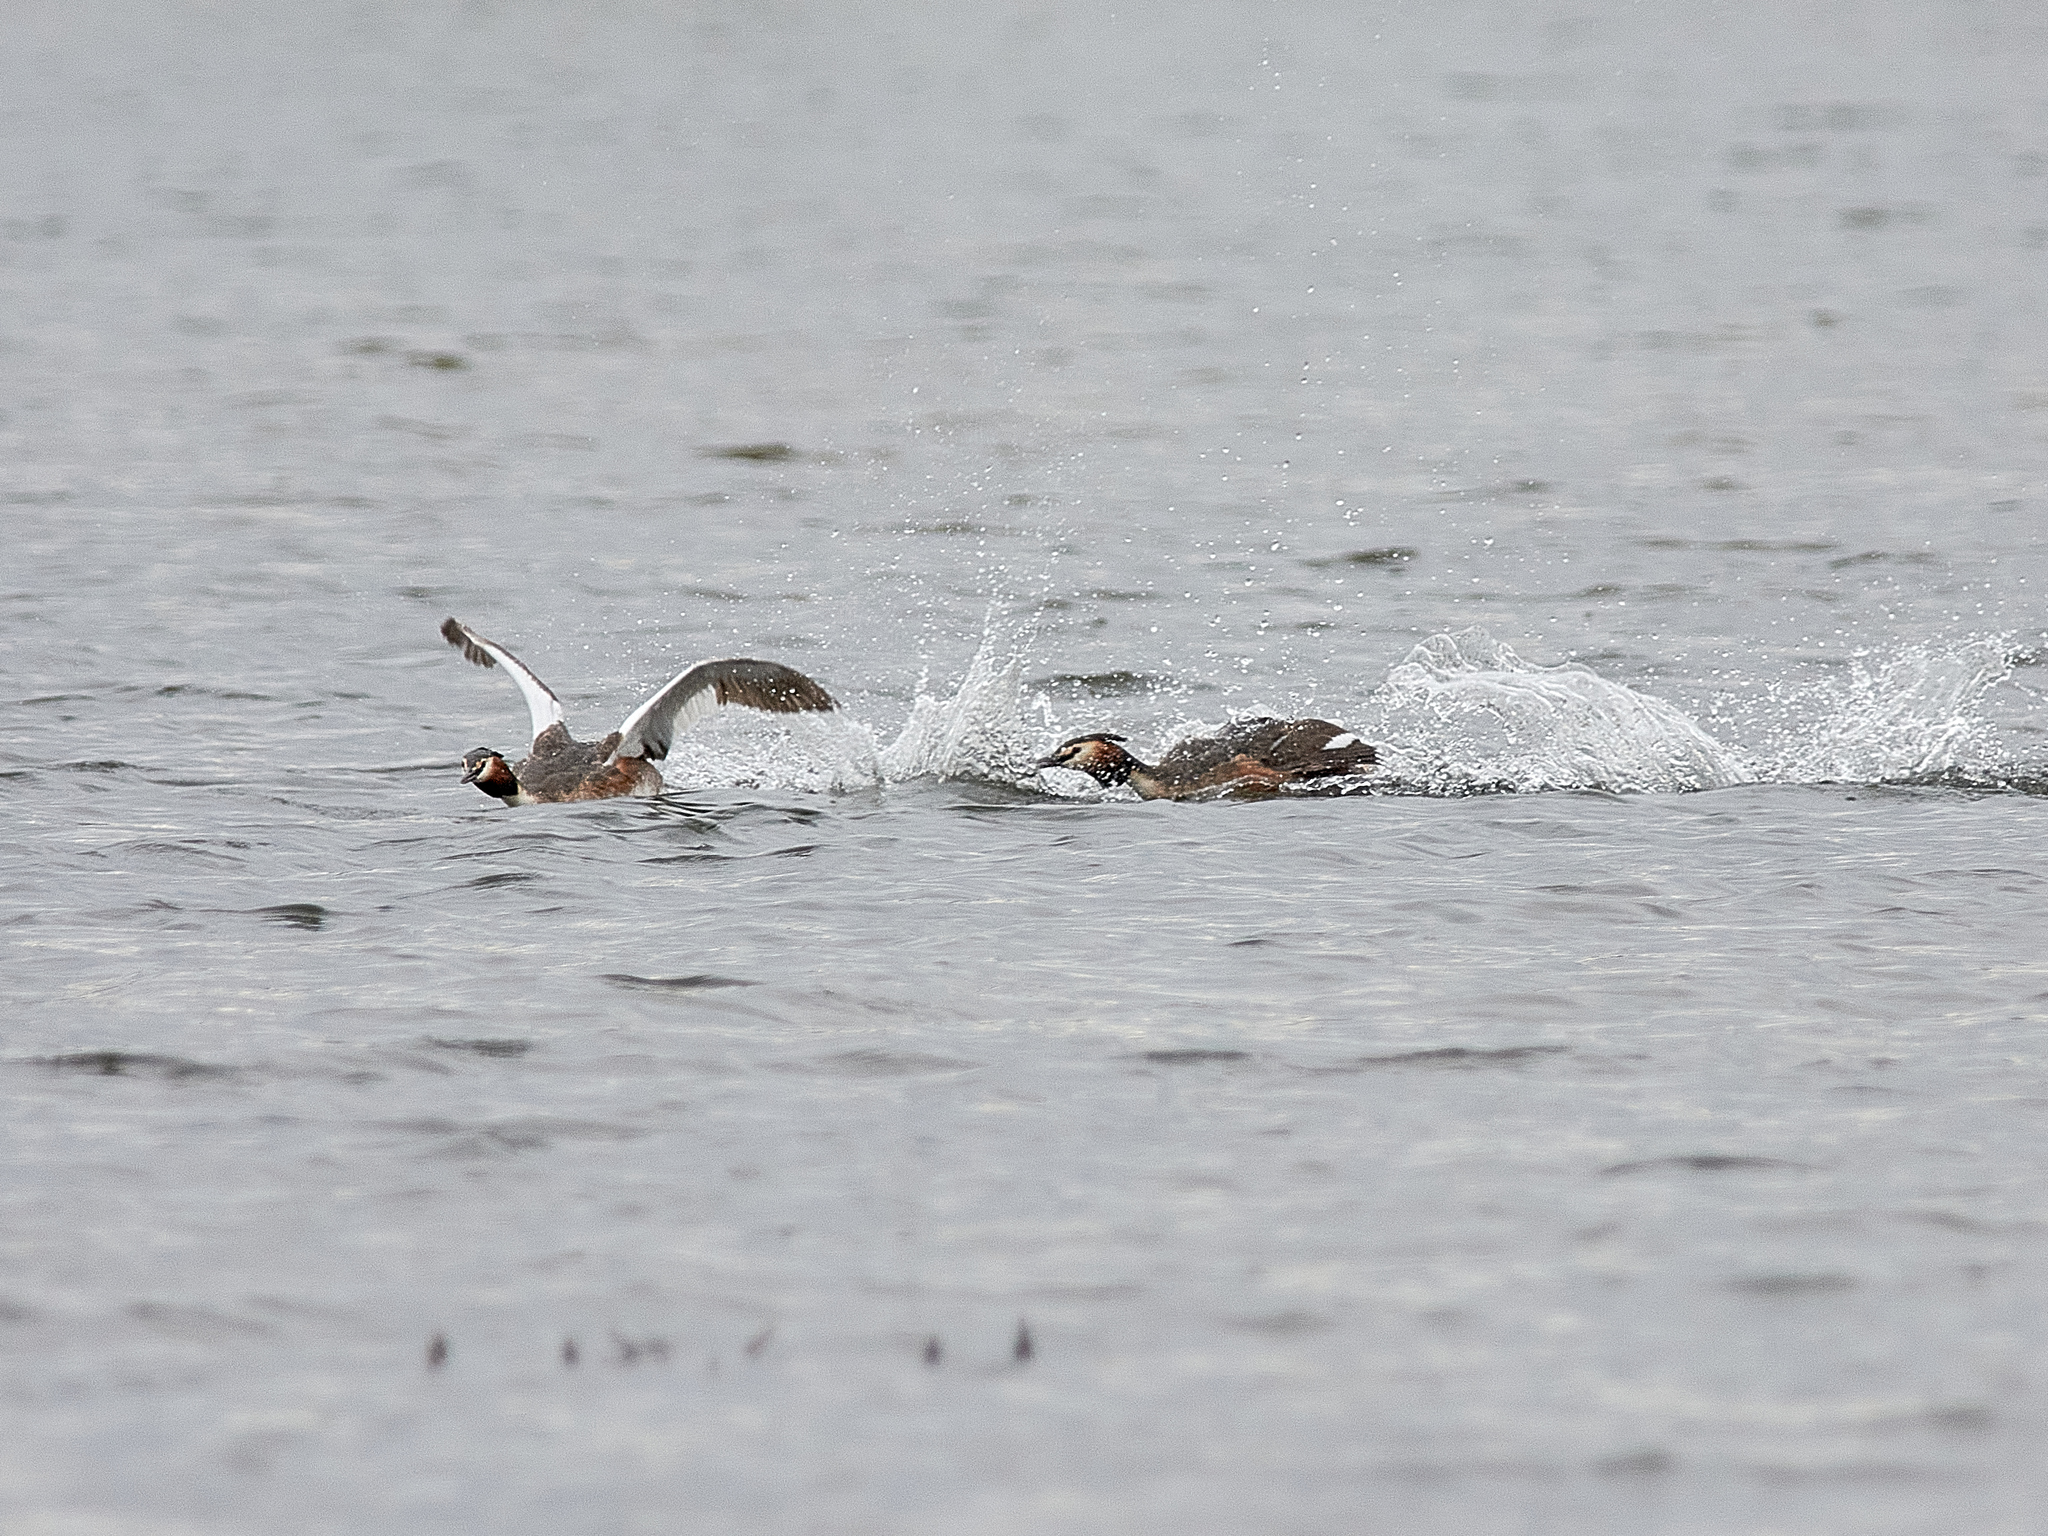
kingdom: Animalia
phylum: Chordata
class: Aves
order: Podicipediformes
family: Podicipedidae
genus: Podiceps
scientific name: Podiceps cristatus
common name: Great crested grebe
